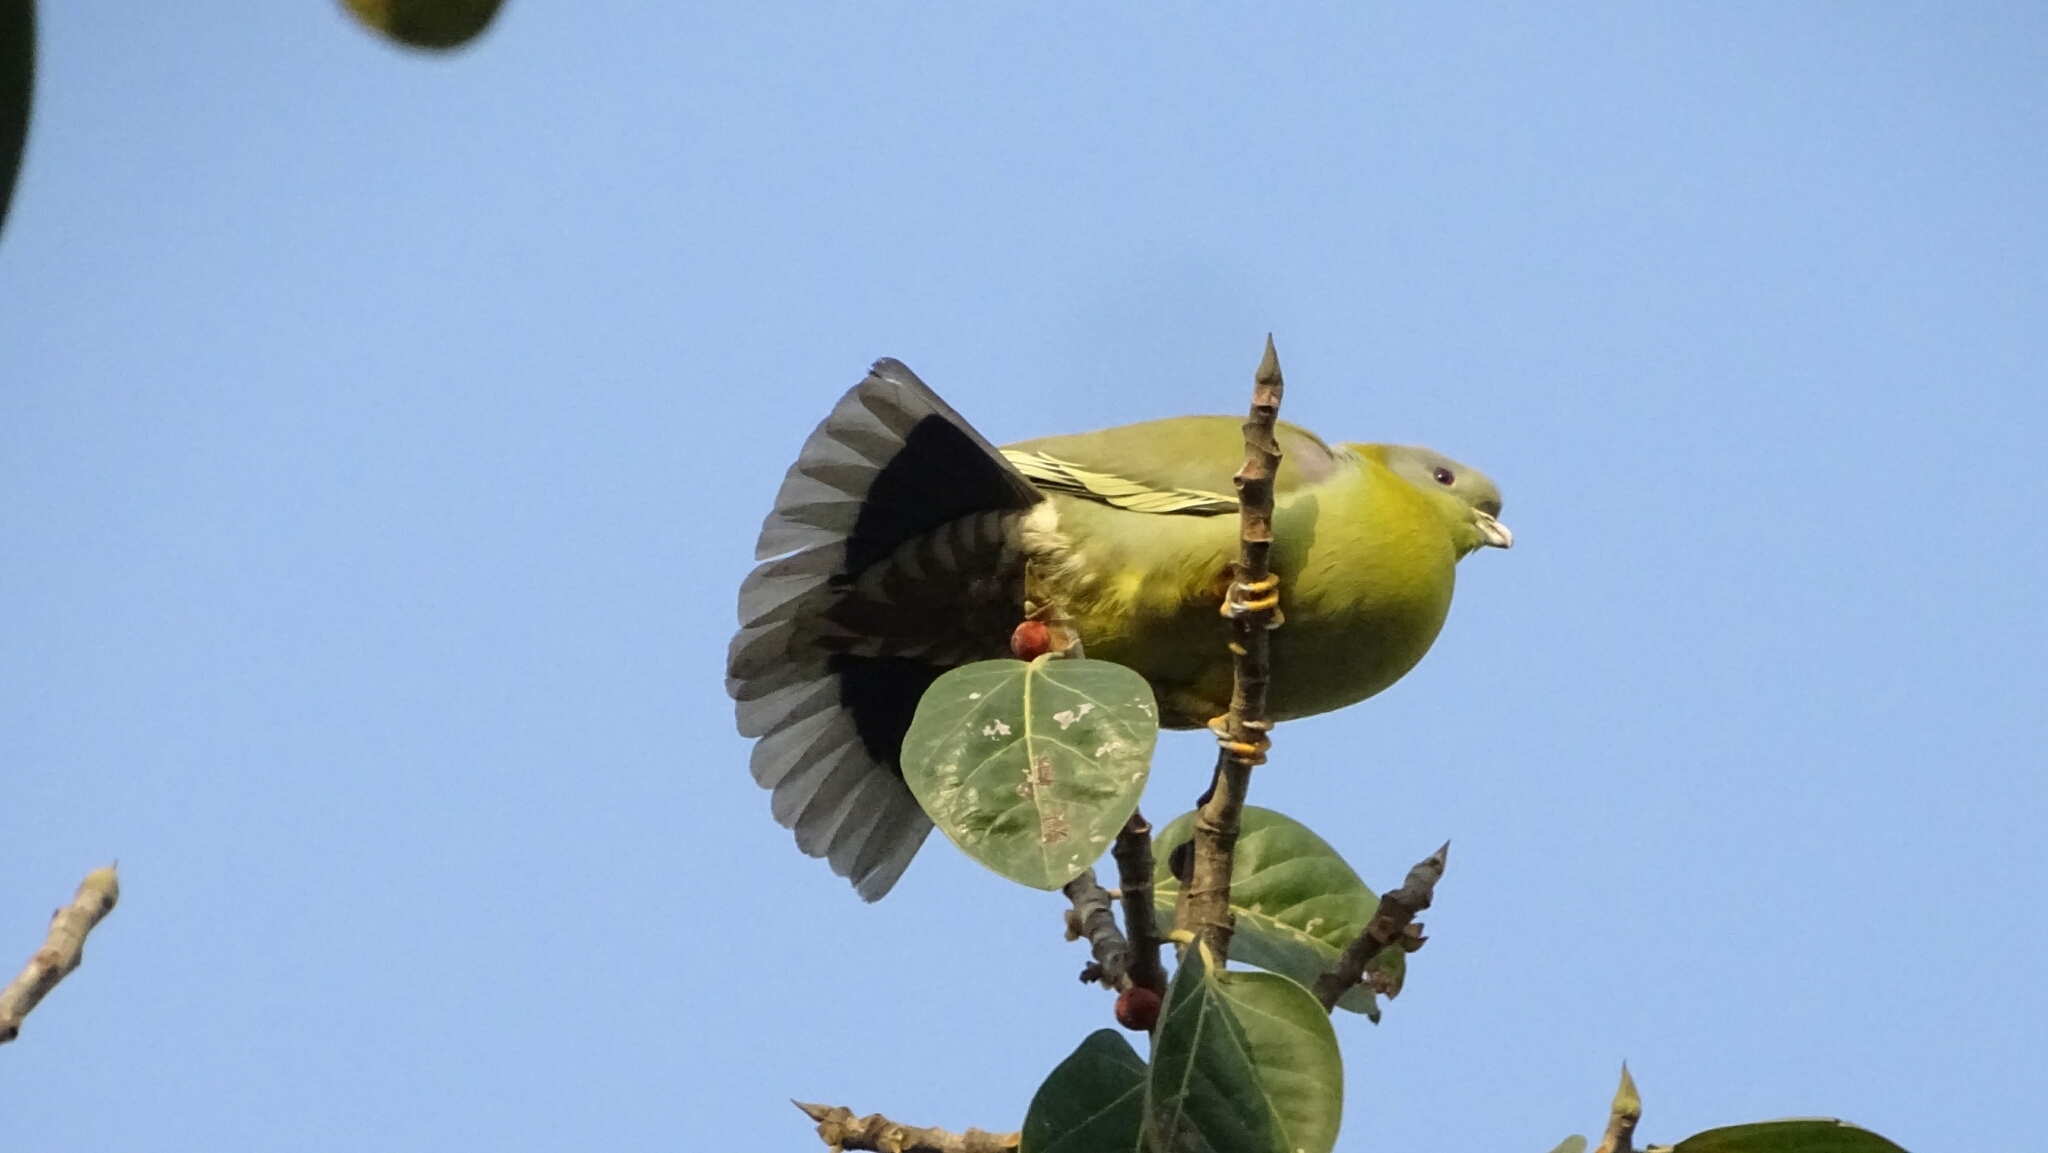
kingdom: Animalia
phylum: Chordata
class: Aves
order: Columbiformes
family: Columbidae
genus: Treron
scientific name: Treron phoenicopterus
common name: Yellow-footed green pigeon
